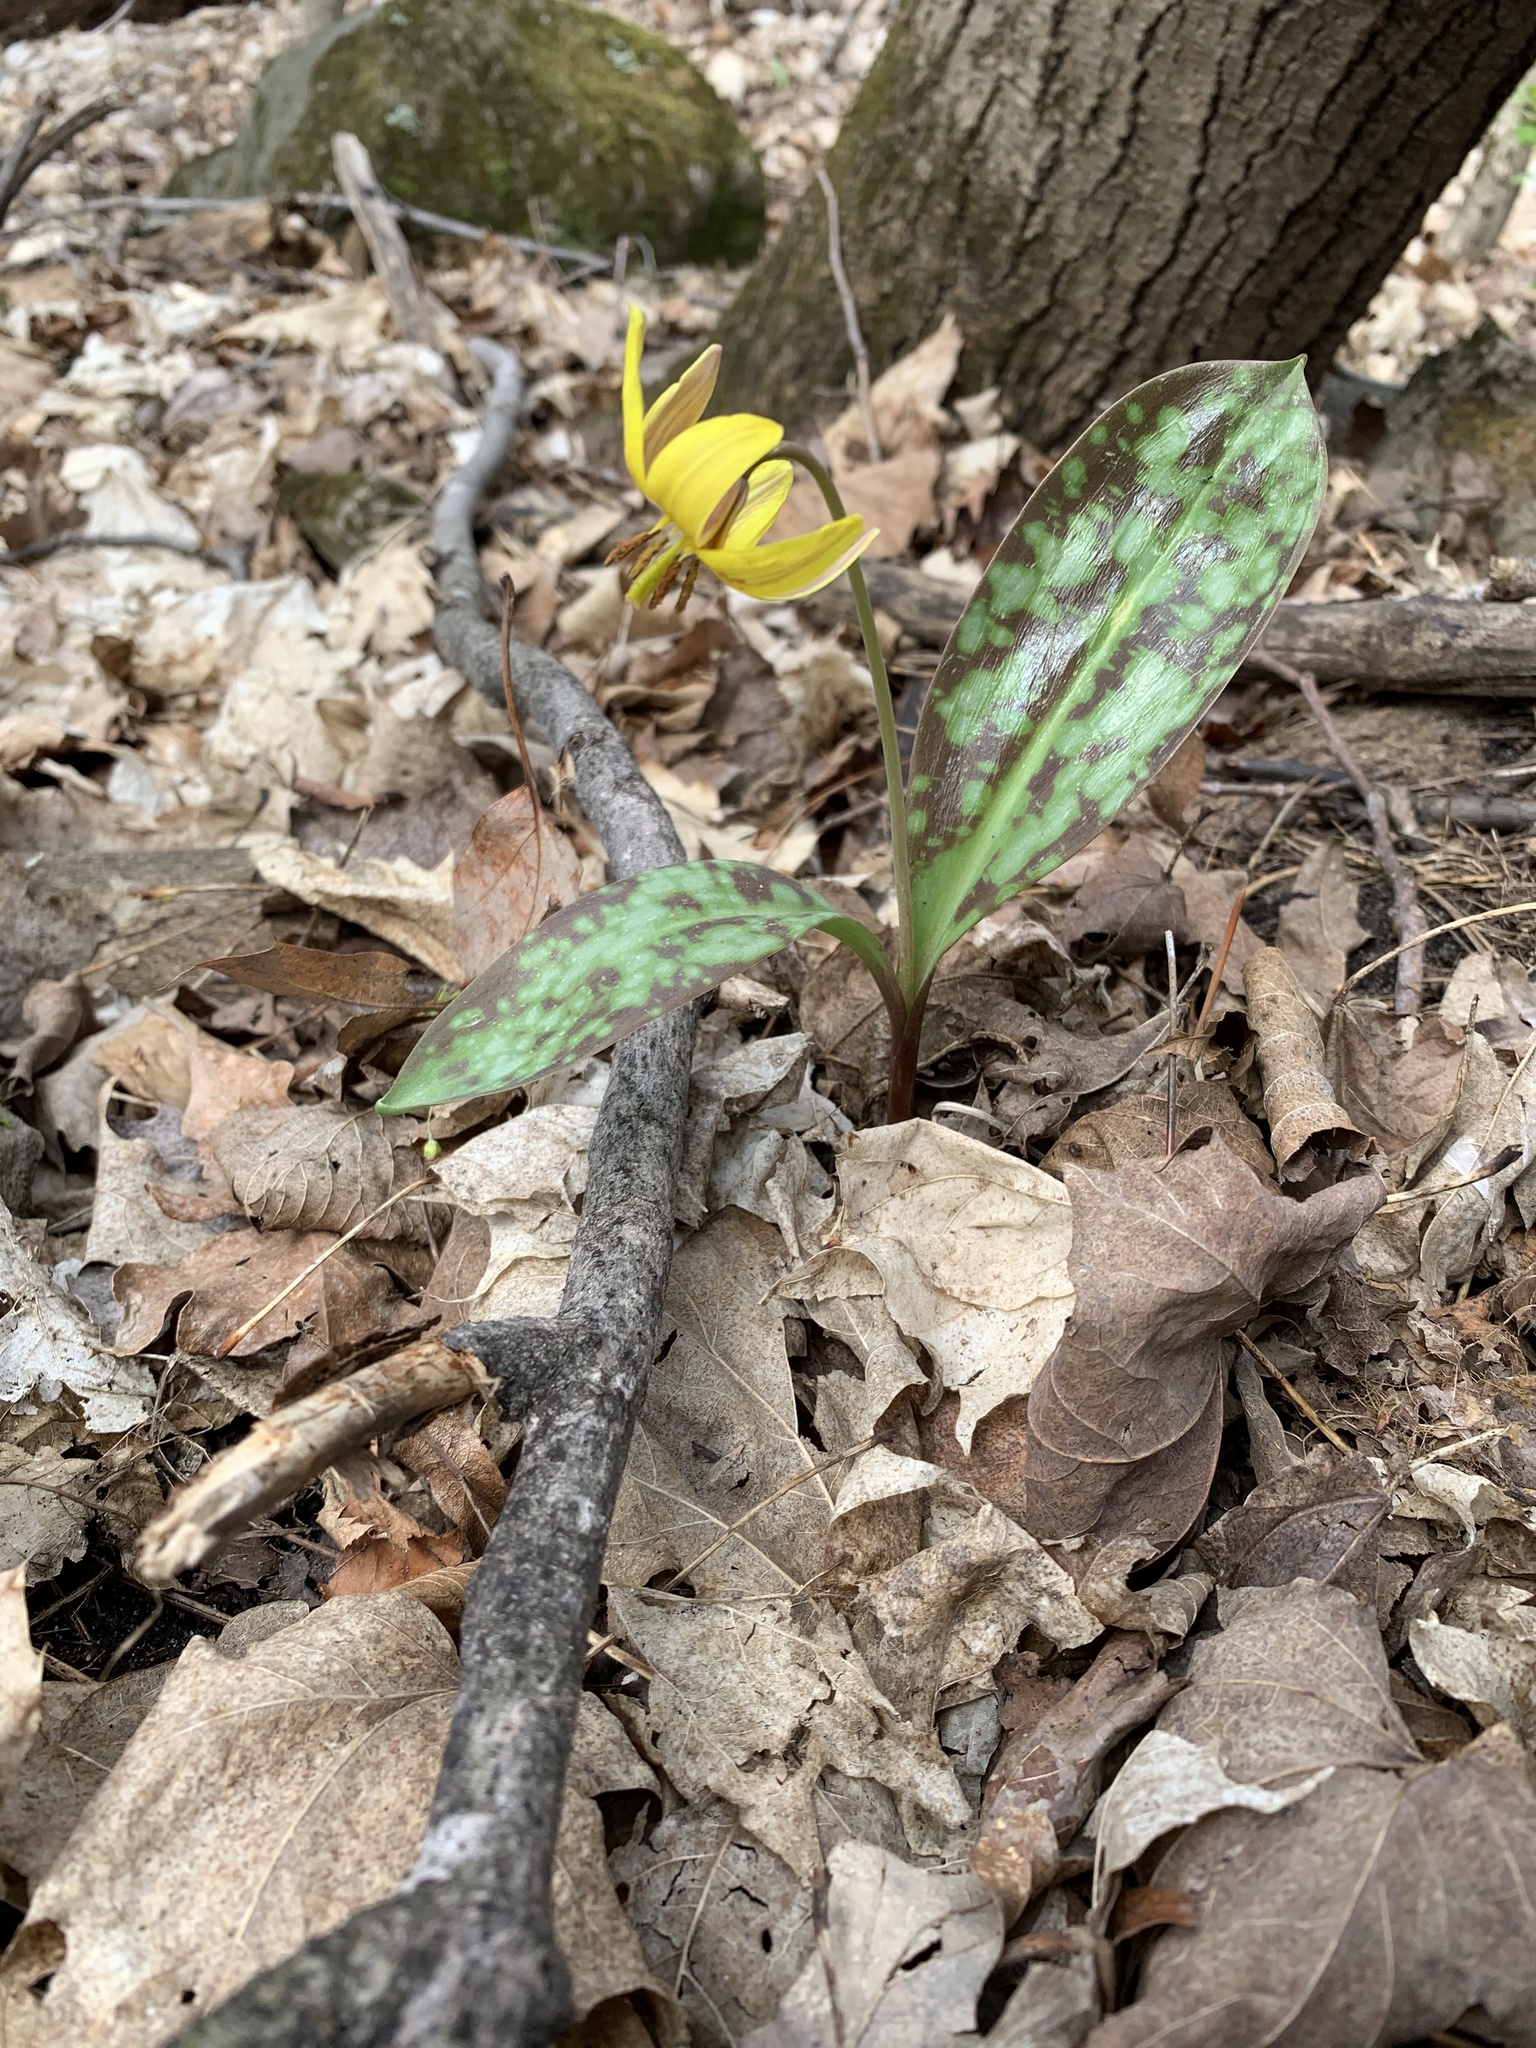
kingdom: Plantae
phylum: Tracheophyta
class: Liliopsida
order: Liliales
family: Liliaceae
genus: Erythronium
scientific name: Erythronium americanum
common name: Yellow adder's-tongue
